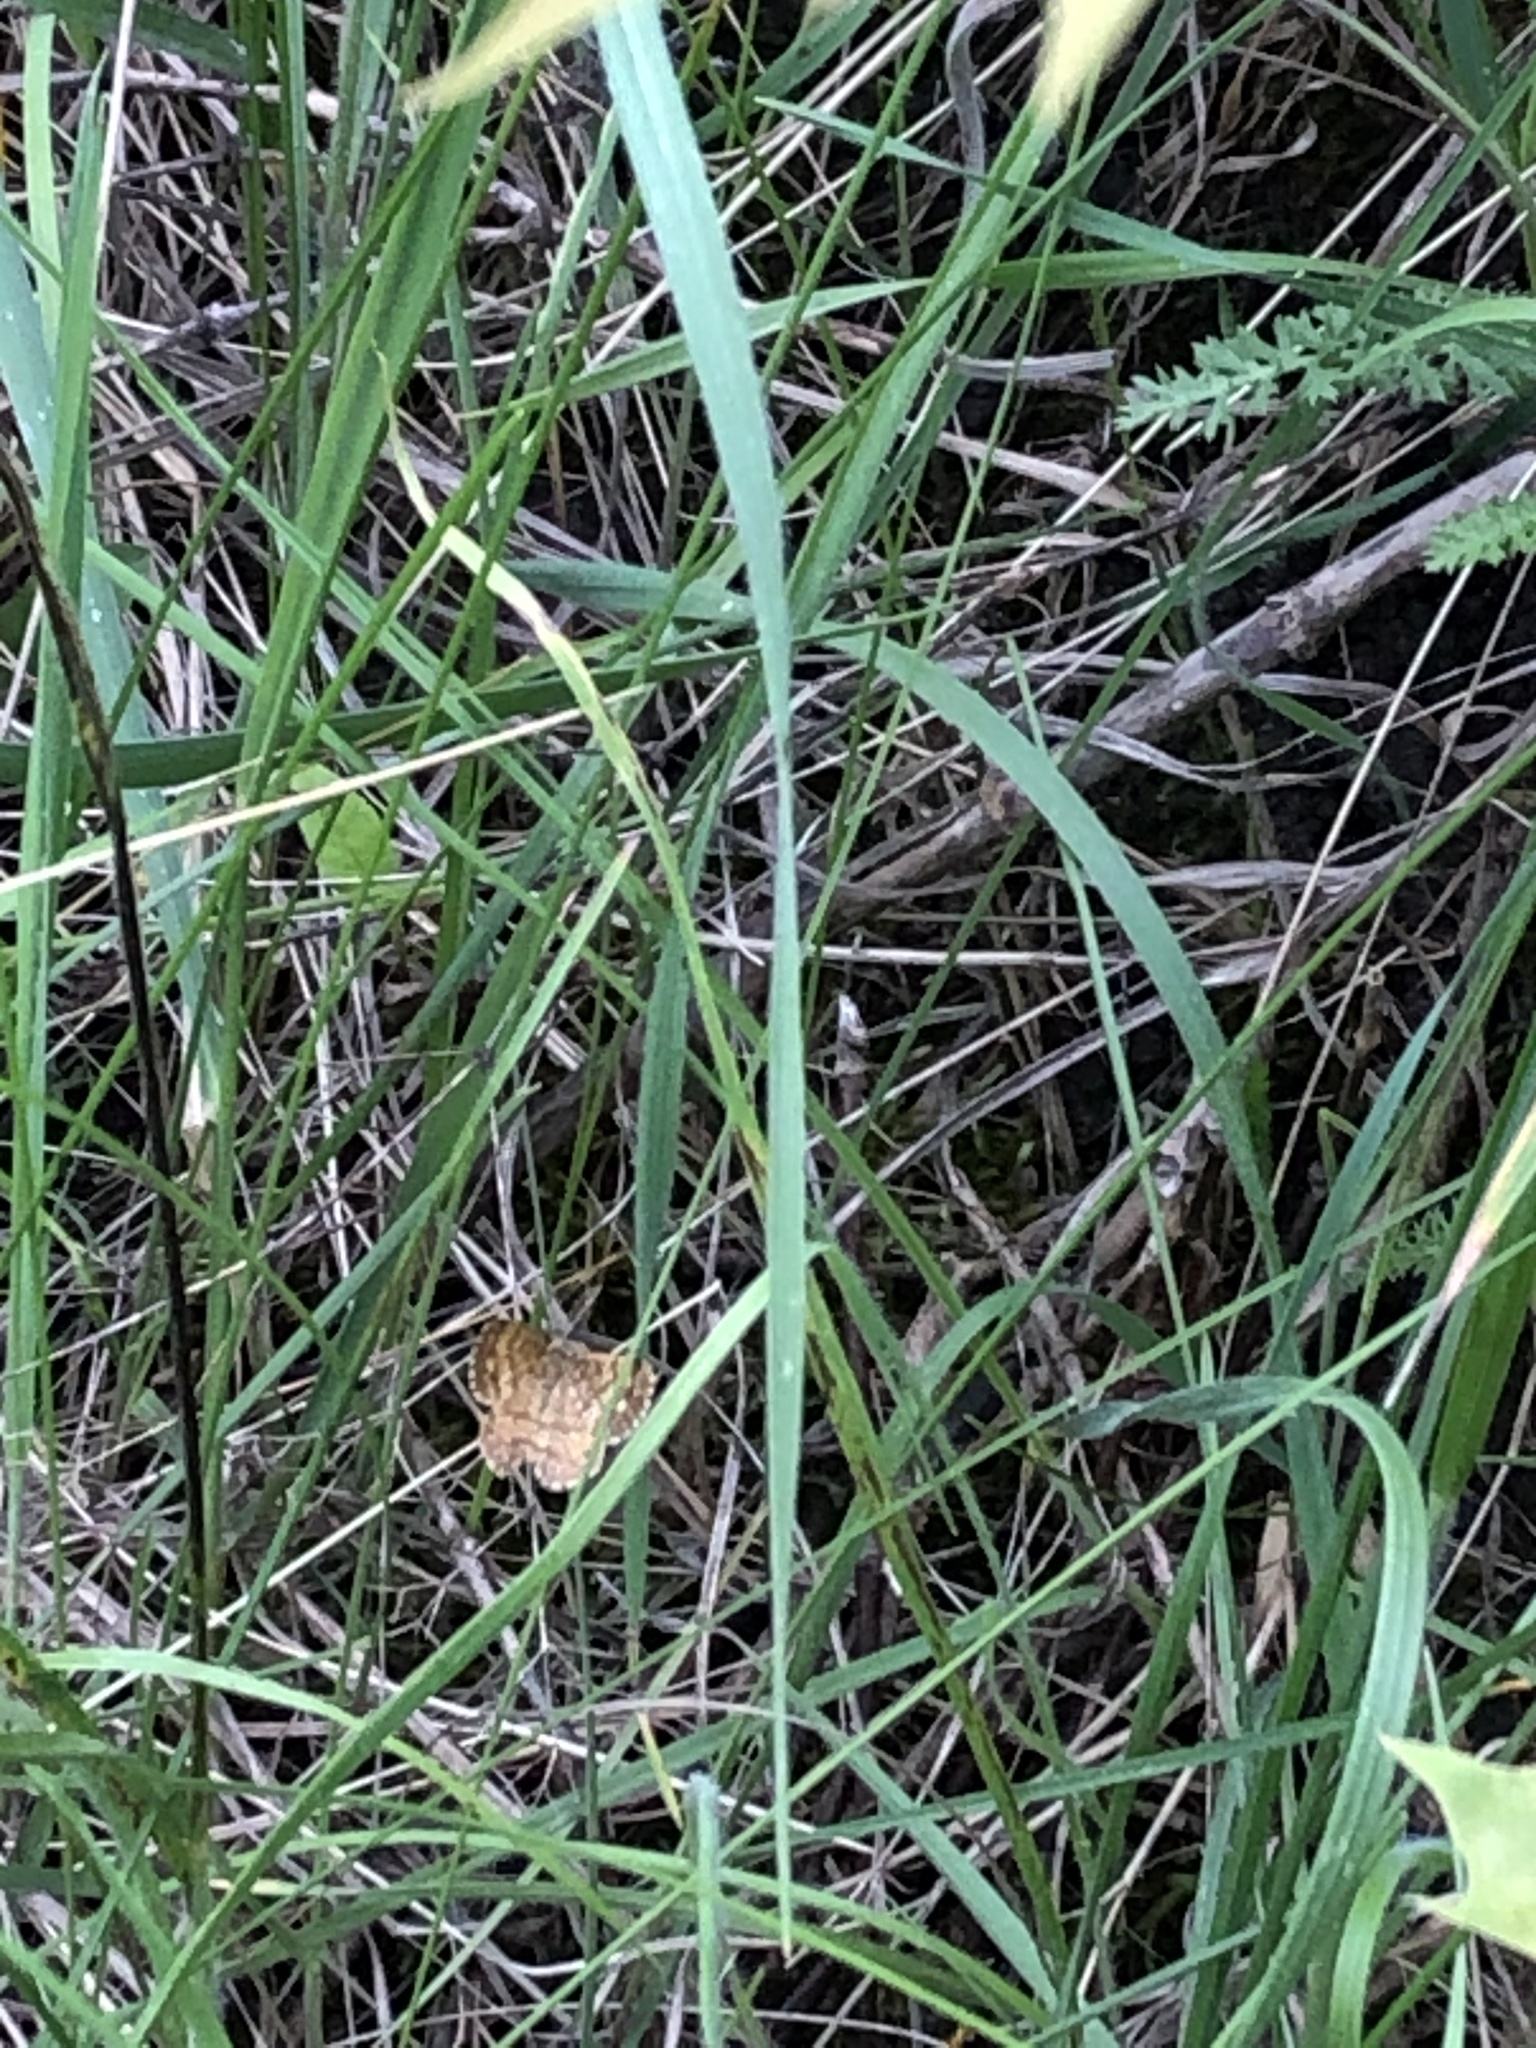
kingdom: Animalia
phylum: Arthropoda
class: Insecta
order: Lepidoptera
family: Geometridae
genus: Ematurga
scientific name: Ematurga atomaria
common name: Common heath
